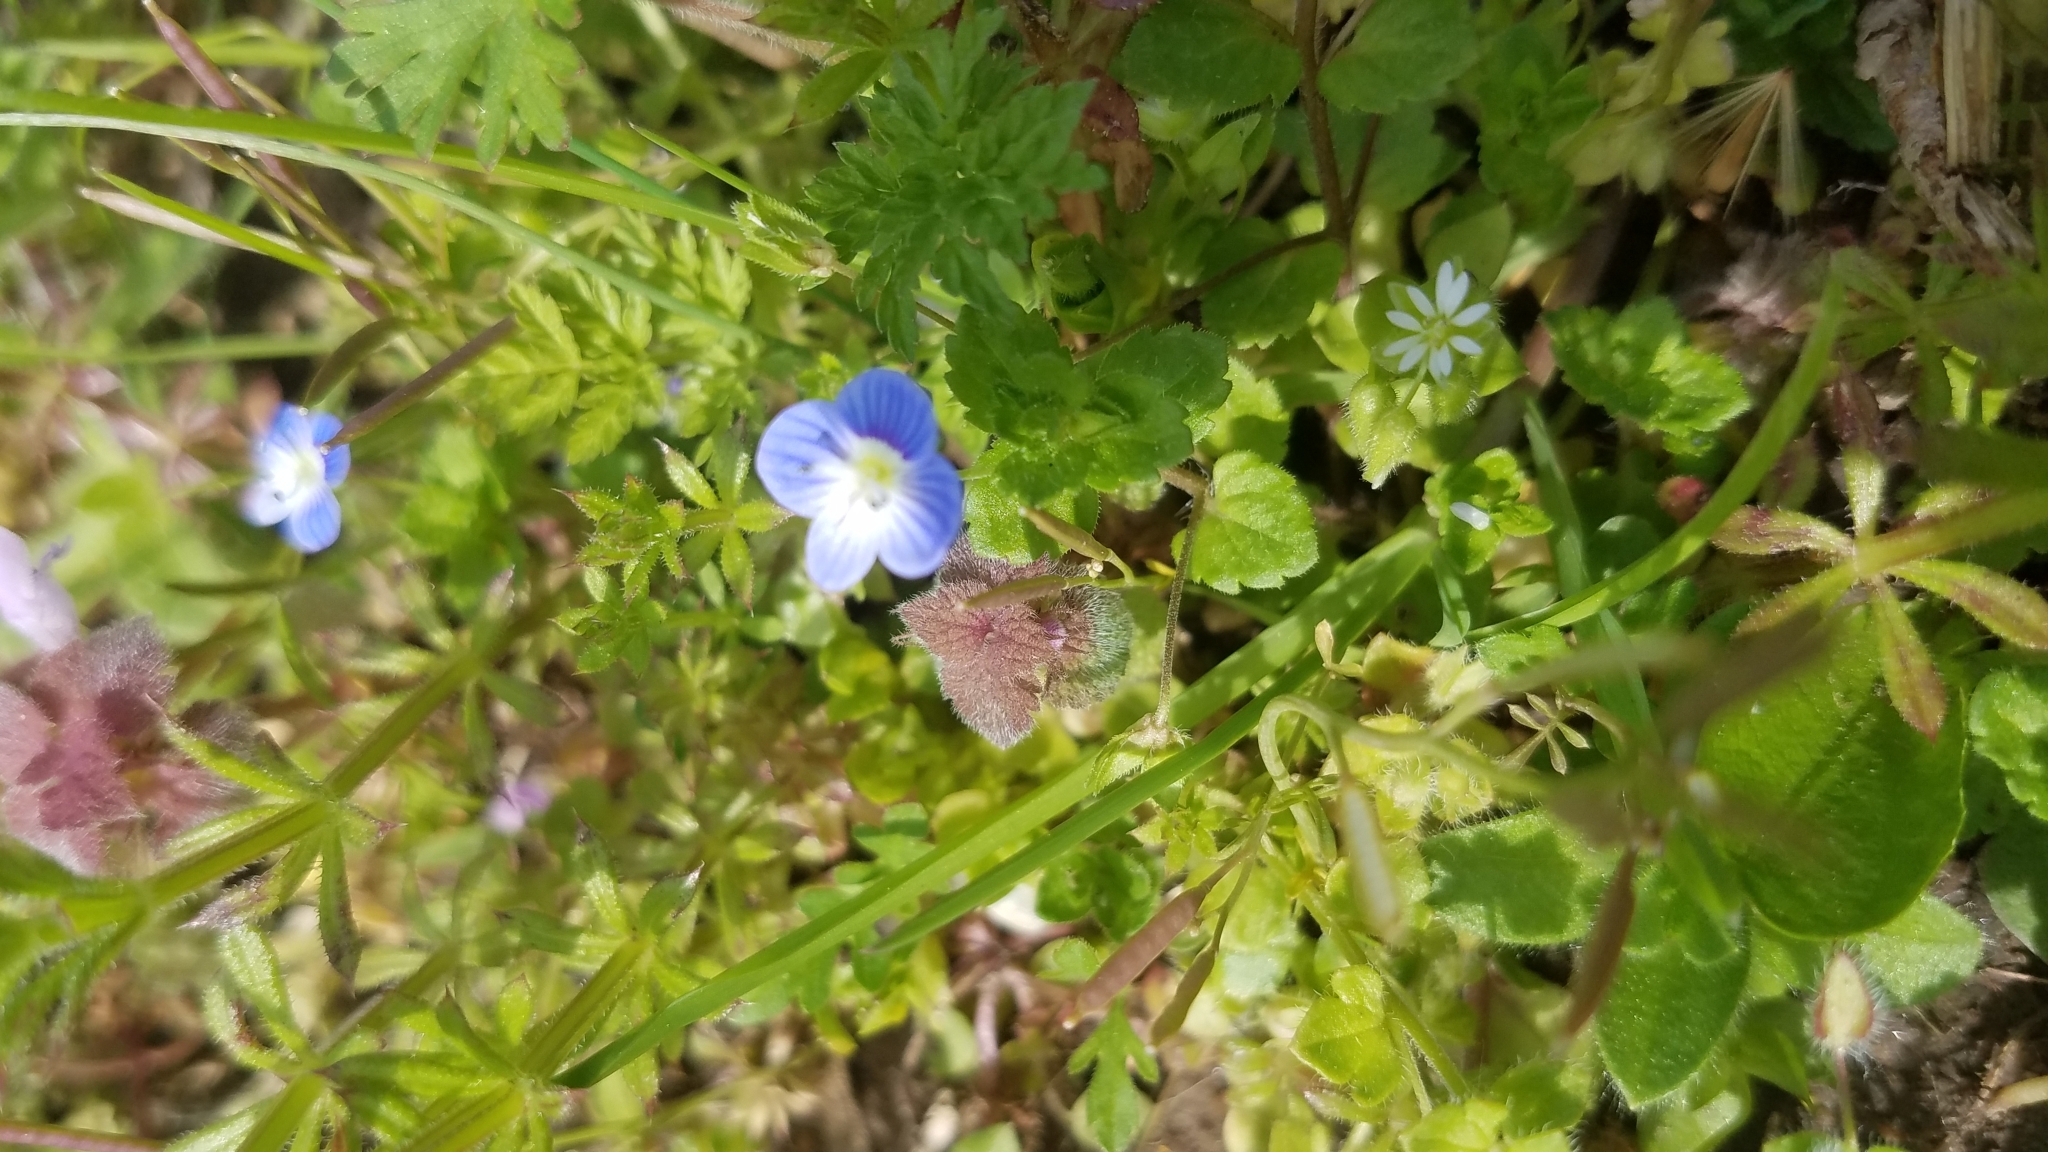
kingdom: Plantae
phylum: Tracheophyta
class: Magnoliopsida
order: Lamiales
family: Plantaginaceae
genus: Veronica
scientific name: Veronica persica
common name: Common field-speedwell
